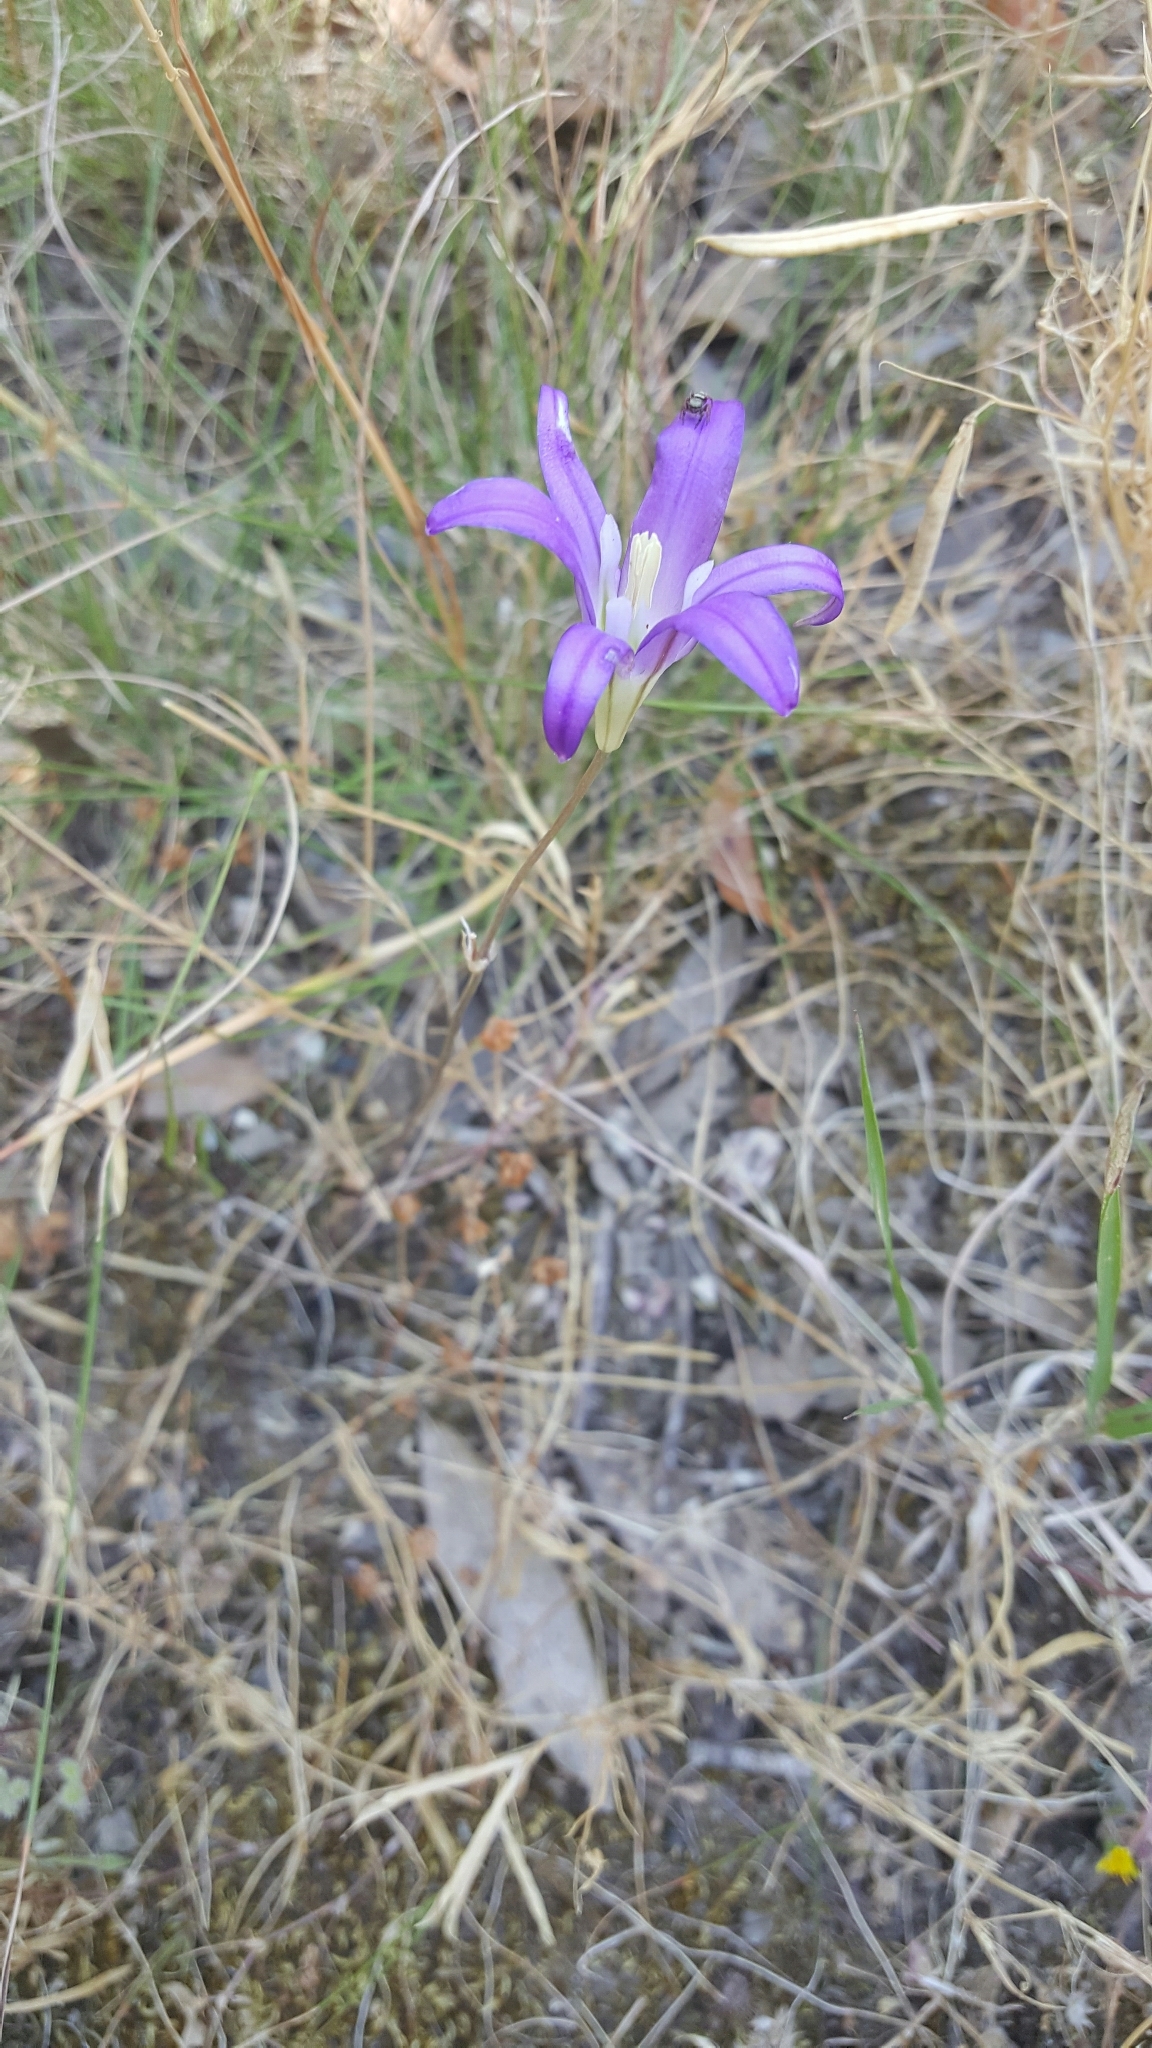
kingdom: Plantae
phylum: Tracheophyta
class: Liliopsida
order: Asparagales
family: Asparagaceae
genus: Brodiaea
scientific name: Brodiaea elegans
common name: Elegant cluster-lily
